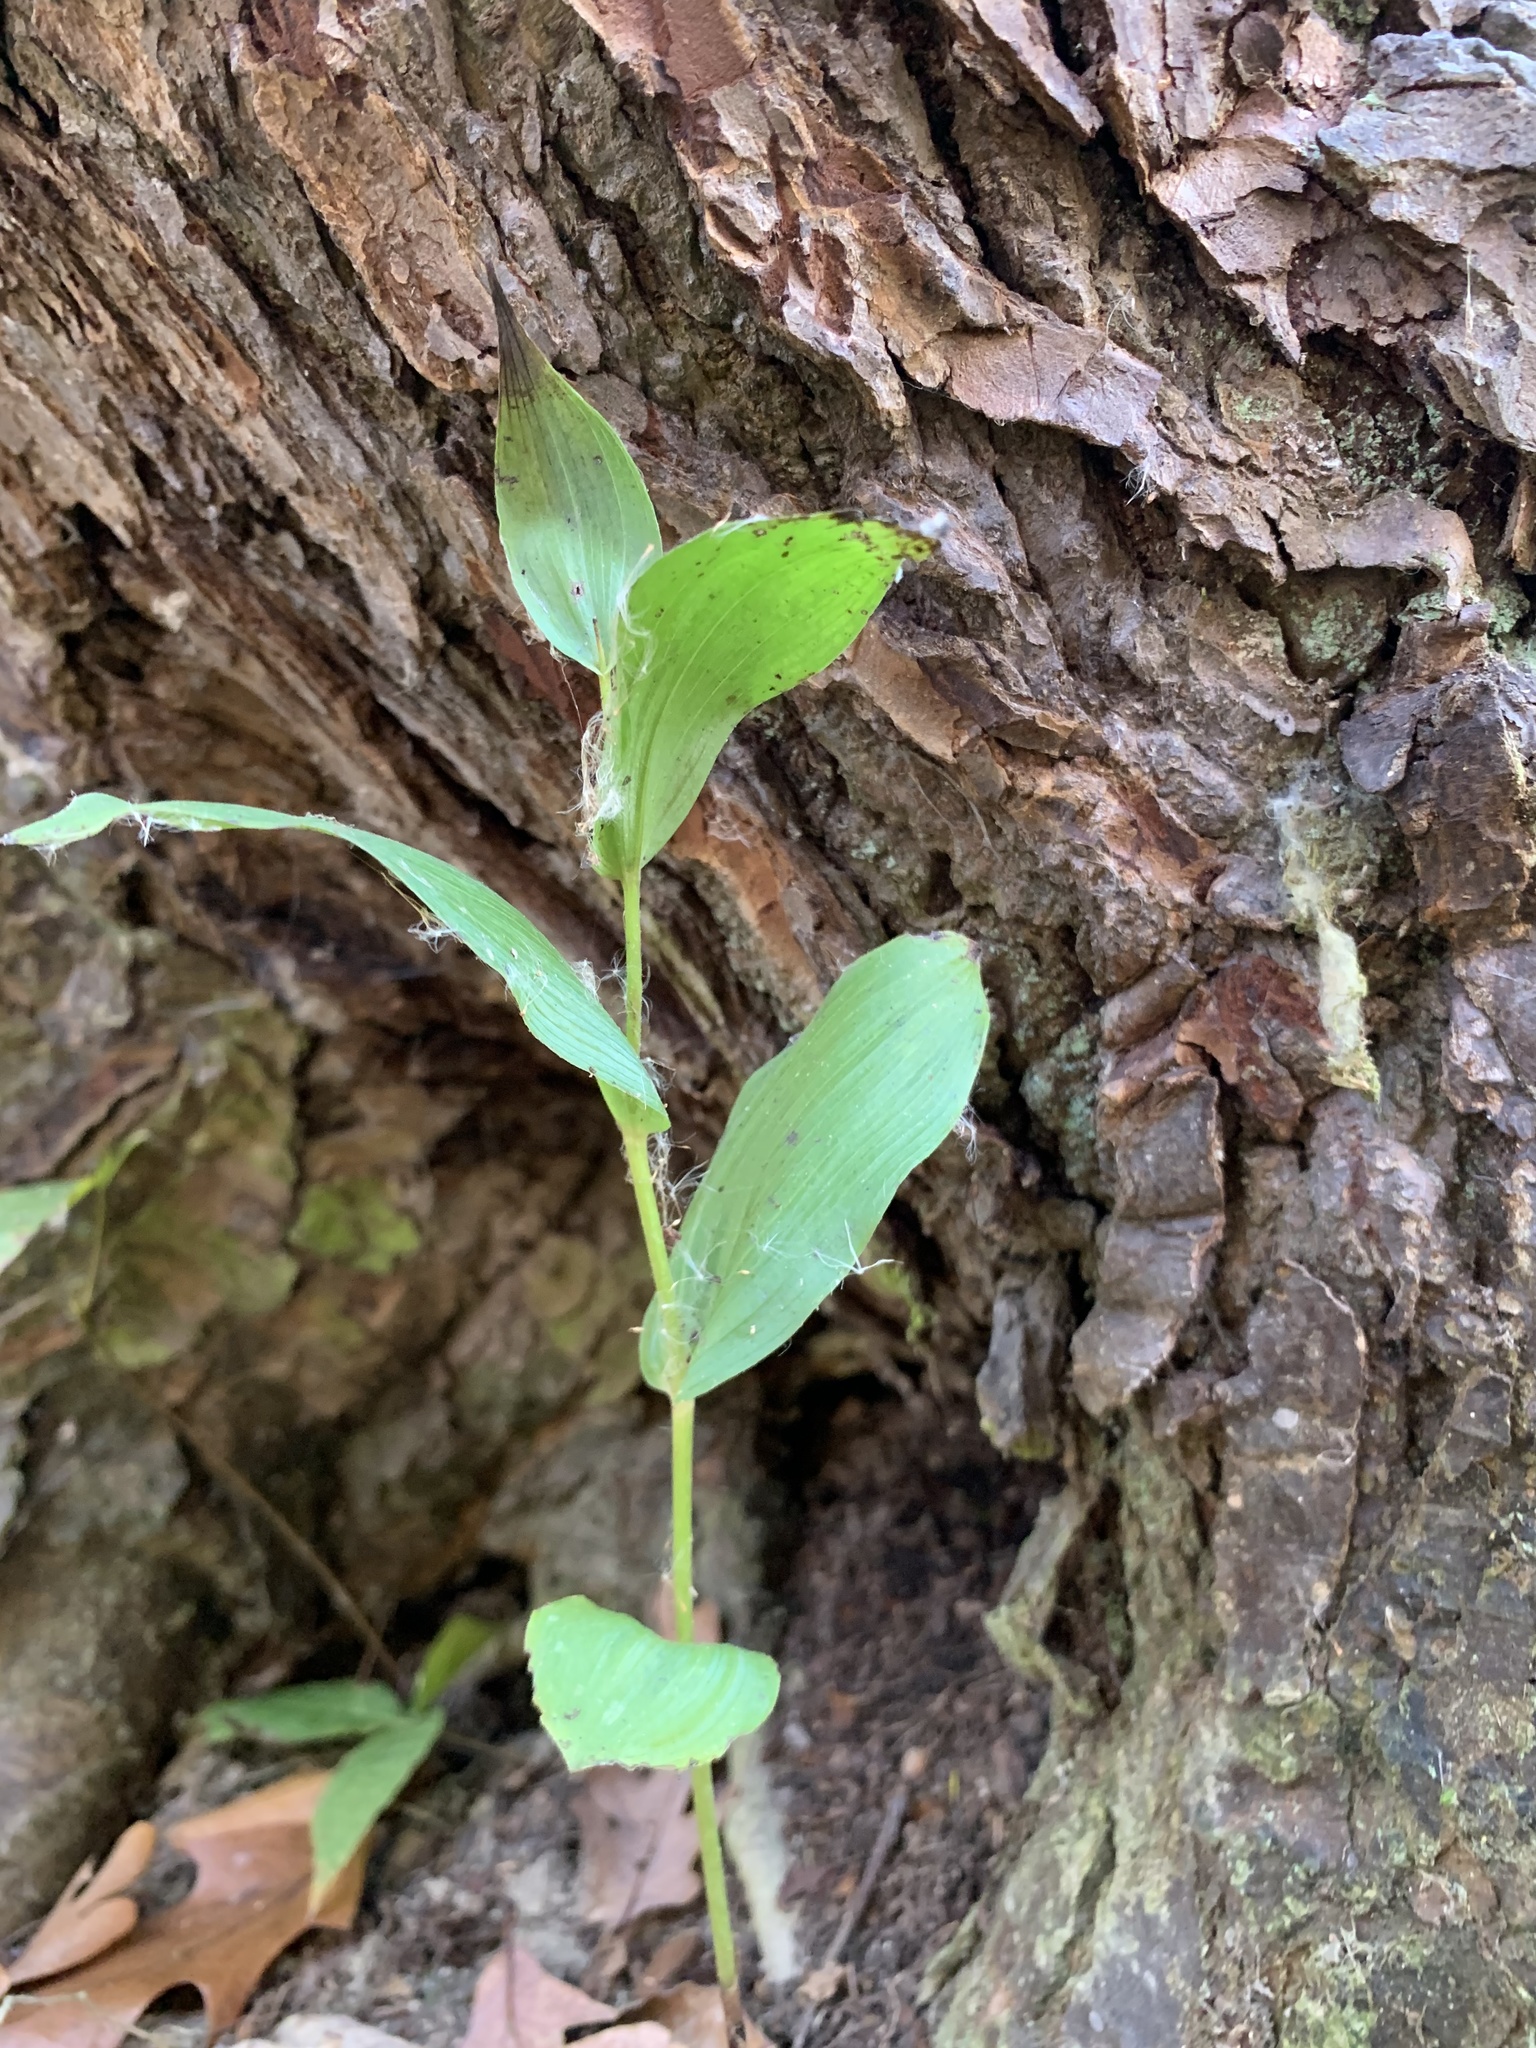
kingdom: Plantae
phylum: Tracheophyta
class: Liliopsida
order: Asparagales
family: Orchidaceae
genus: Epipactis
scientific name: Epipactis helleborine
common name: Broad-leaved helleborine
